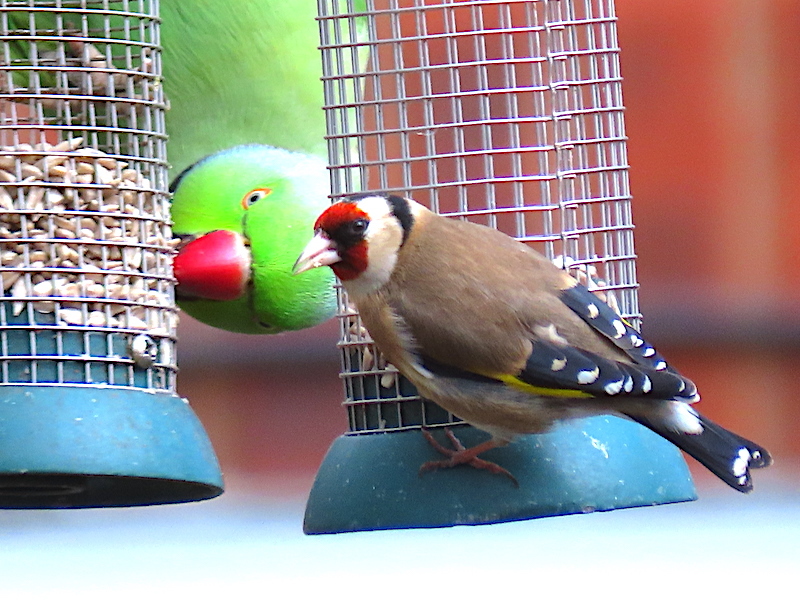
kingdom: Animalia
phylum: Chordata
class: Aves
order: Passeriformes
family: Fringillidae
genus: Carduelis
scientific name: Carduelis carduelis
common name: European goldfinch
